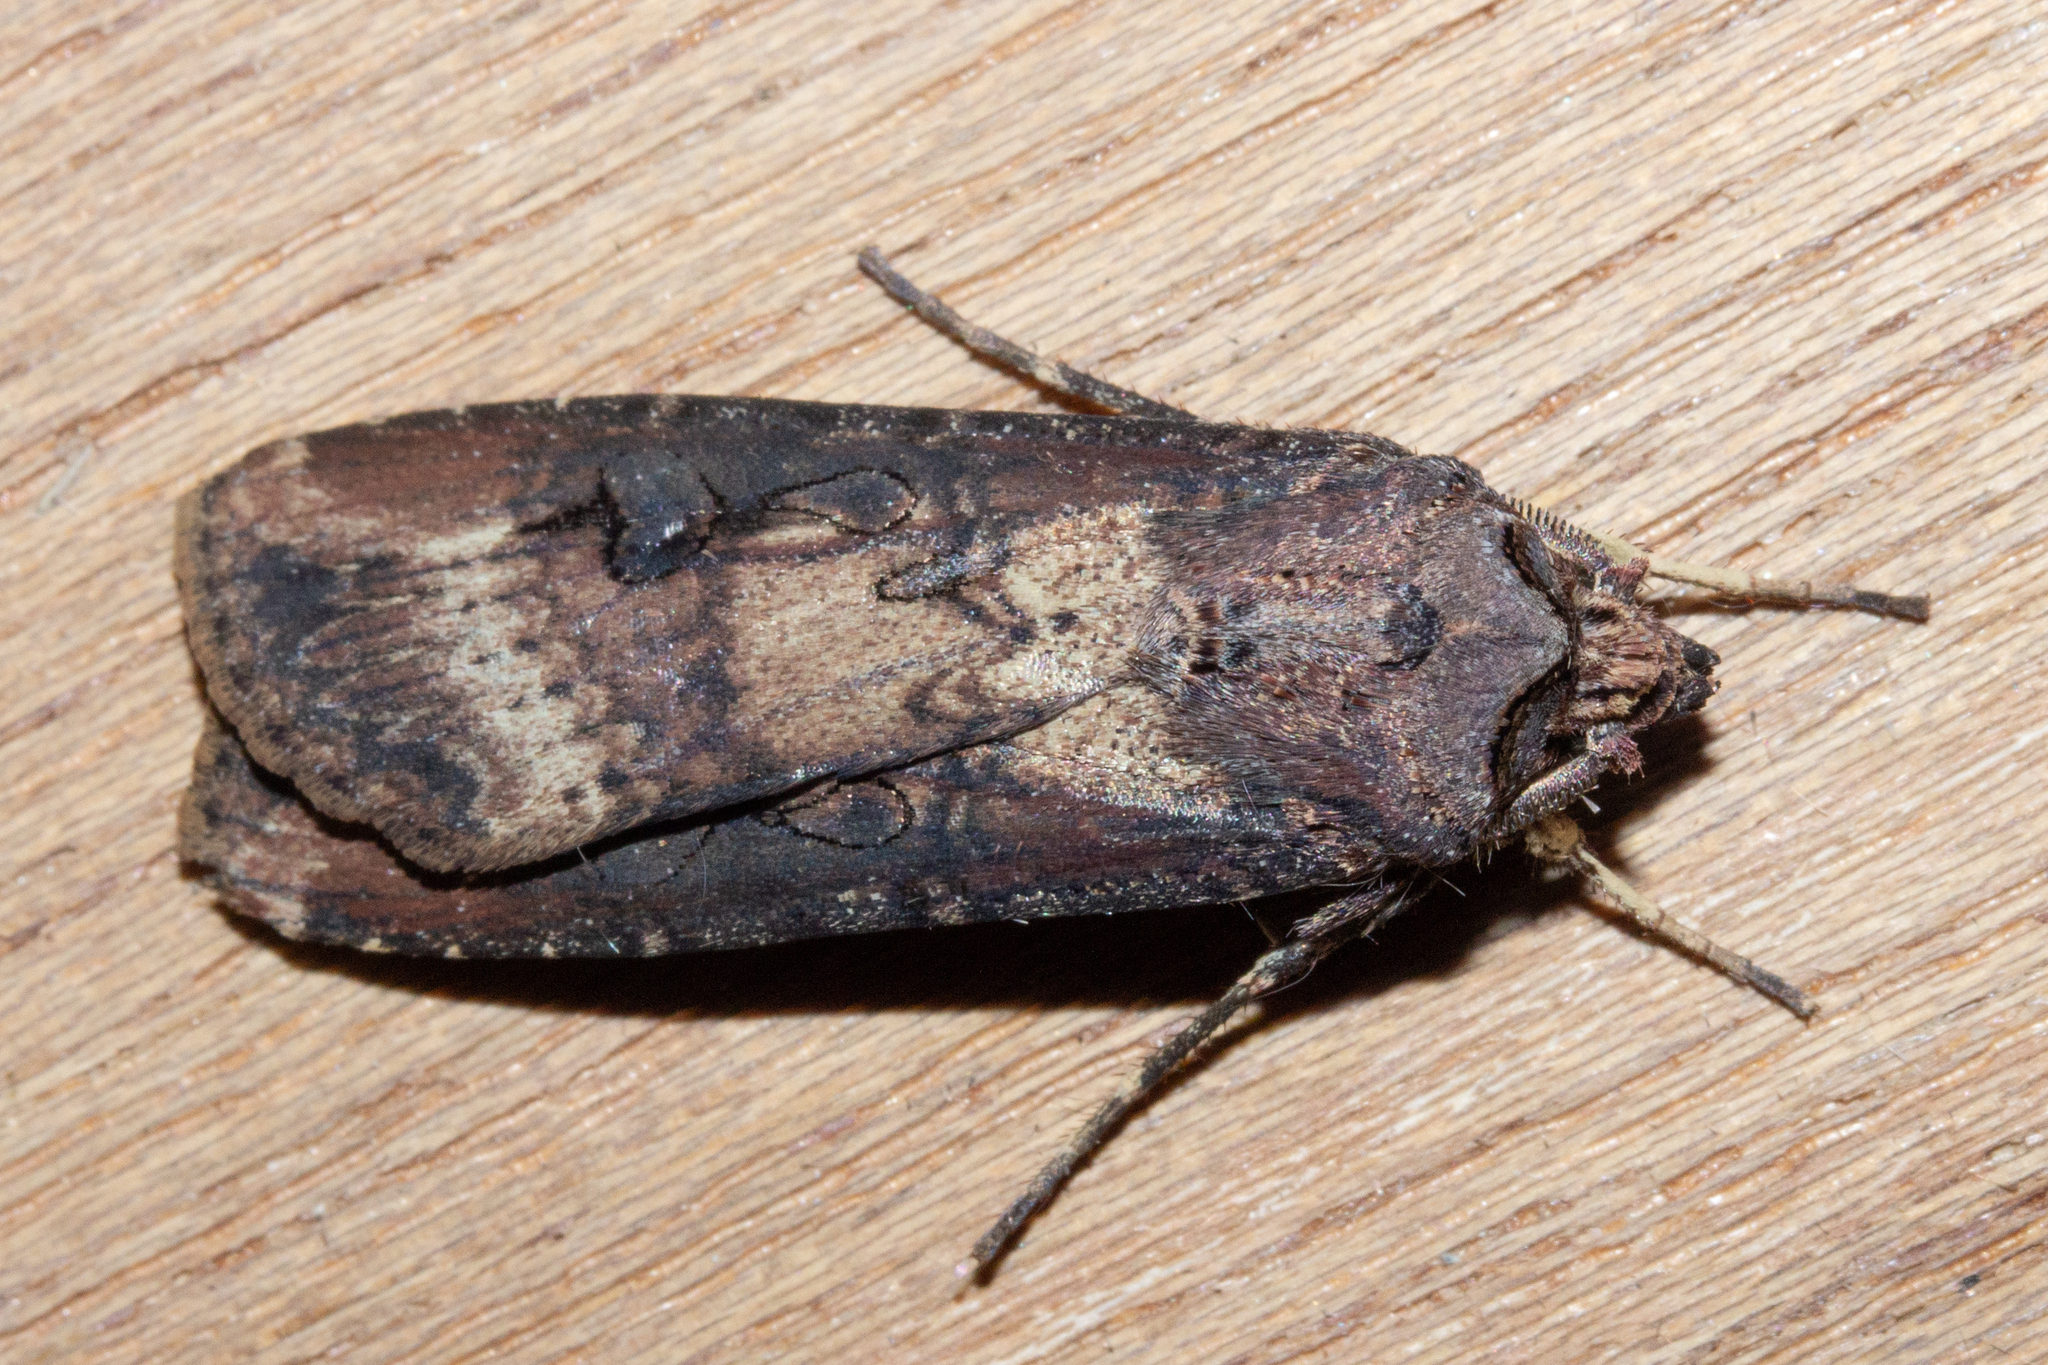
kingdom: Animalia
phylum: Arthropoda
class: Insecta
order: Lepidoptera
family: Noctuidae
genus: Agrotis
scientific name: Agrotis ipsilon
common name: Dark sword-grass
